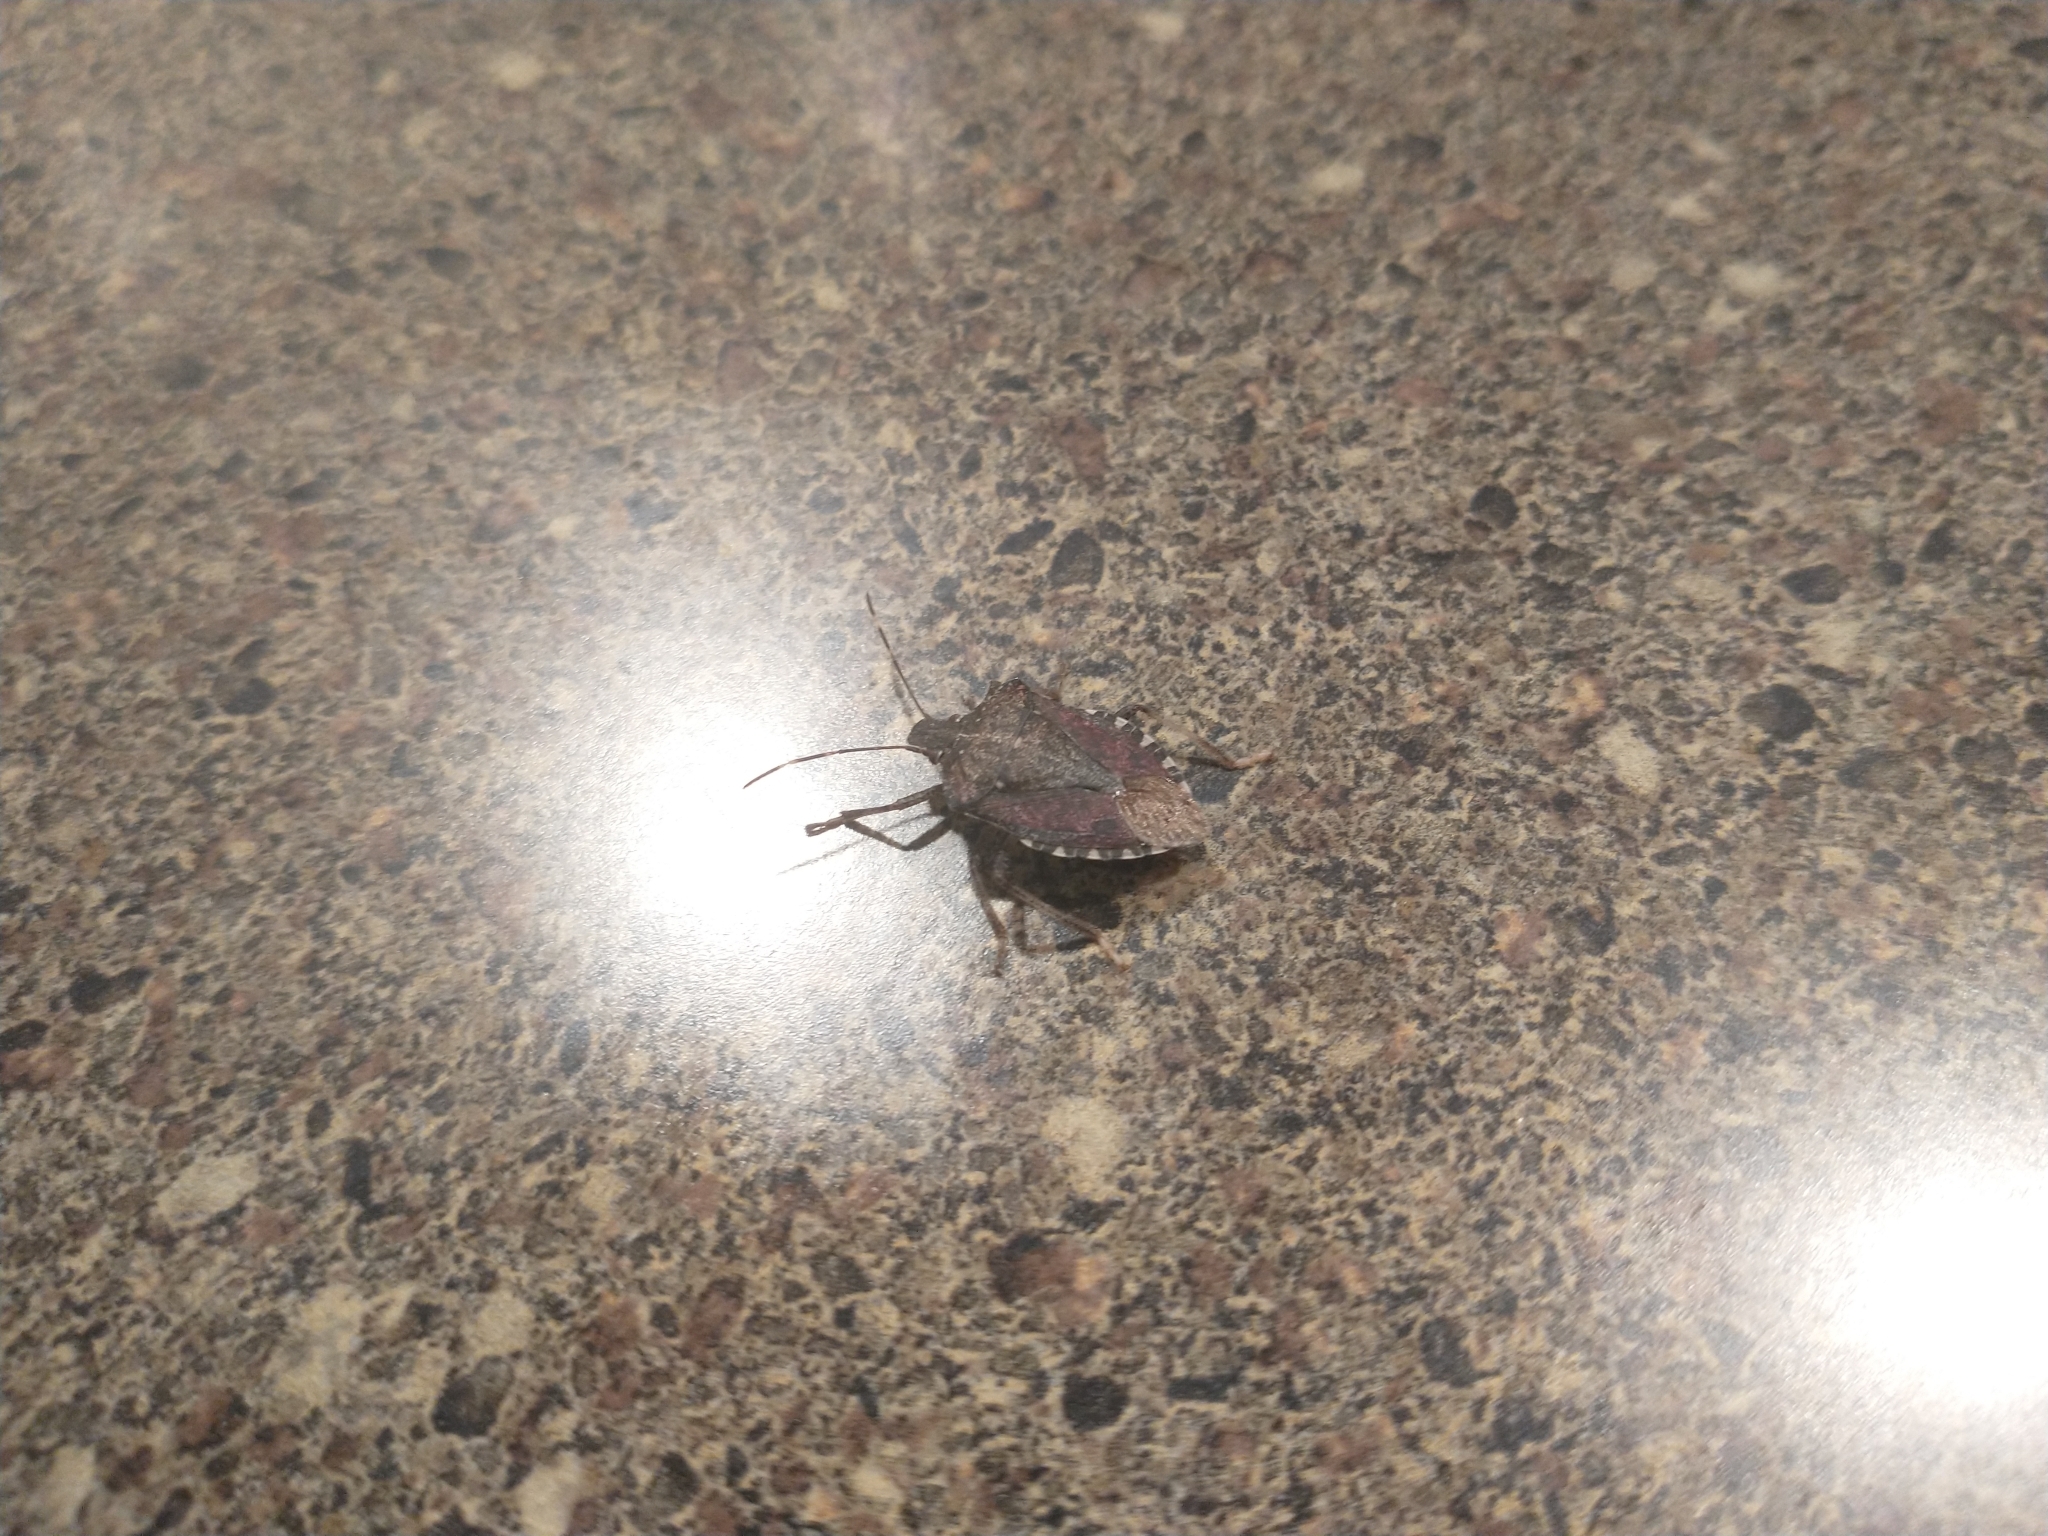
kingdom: Animalia
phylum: Arthropoda
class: Insecta
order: Hemiptera
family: Pentatomidae
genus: Halyomorpha
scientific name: Halyomorpha halys
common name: Brown marmorated stink bug
